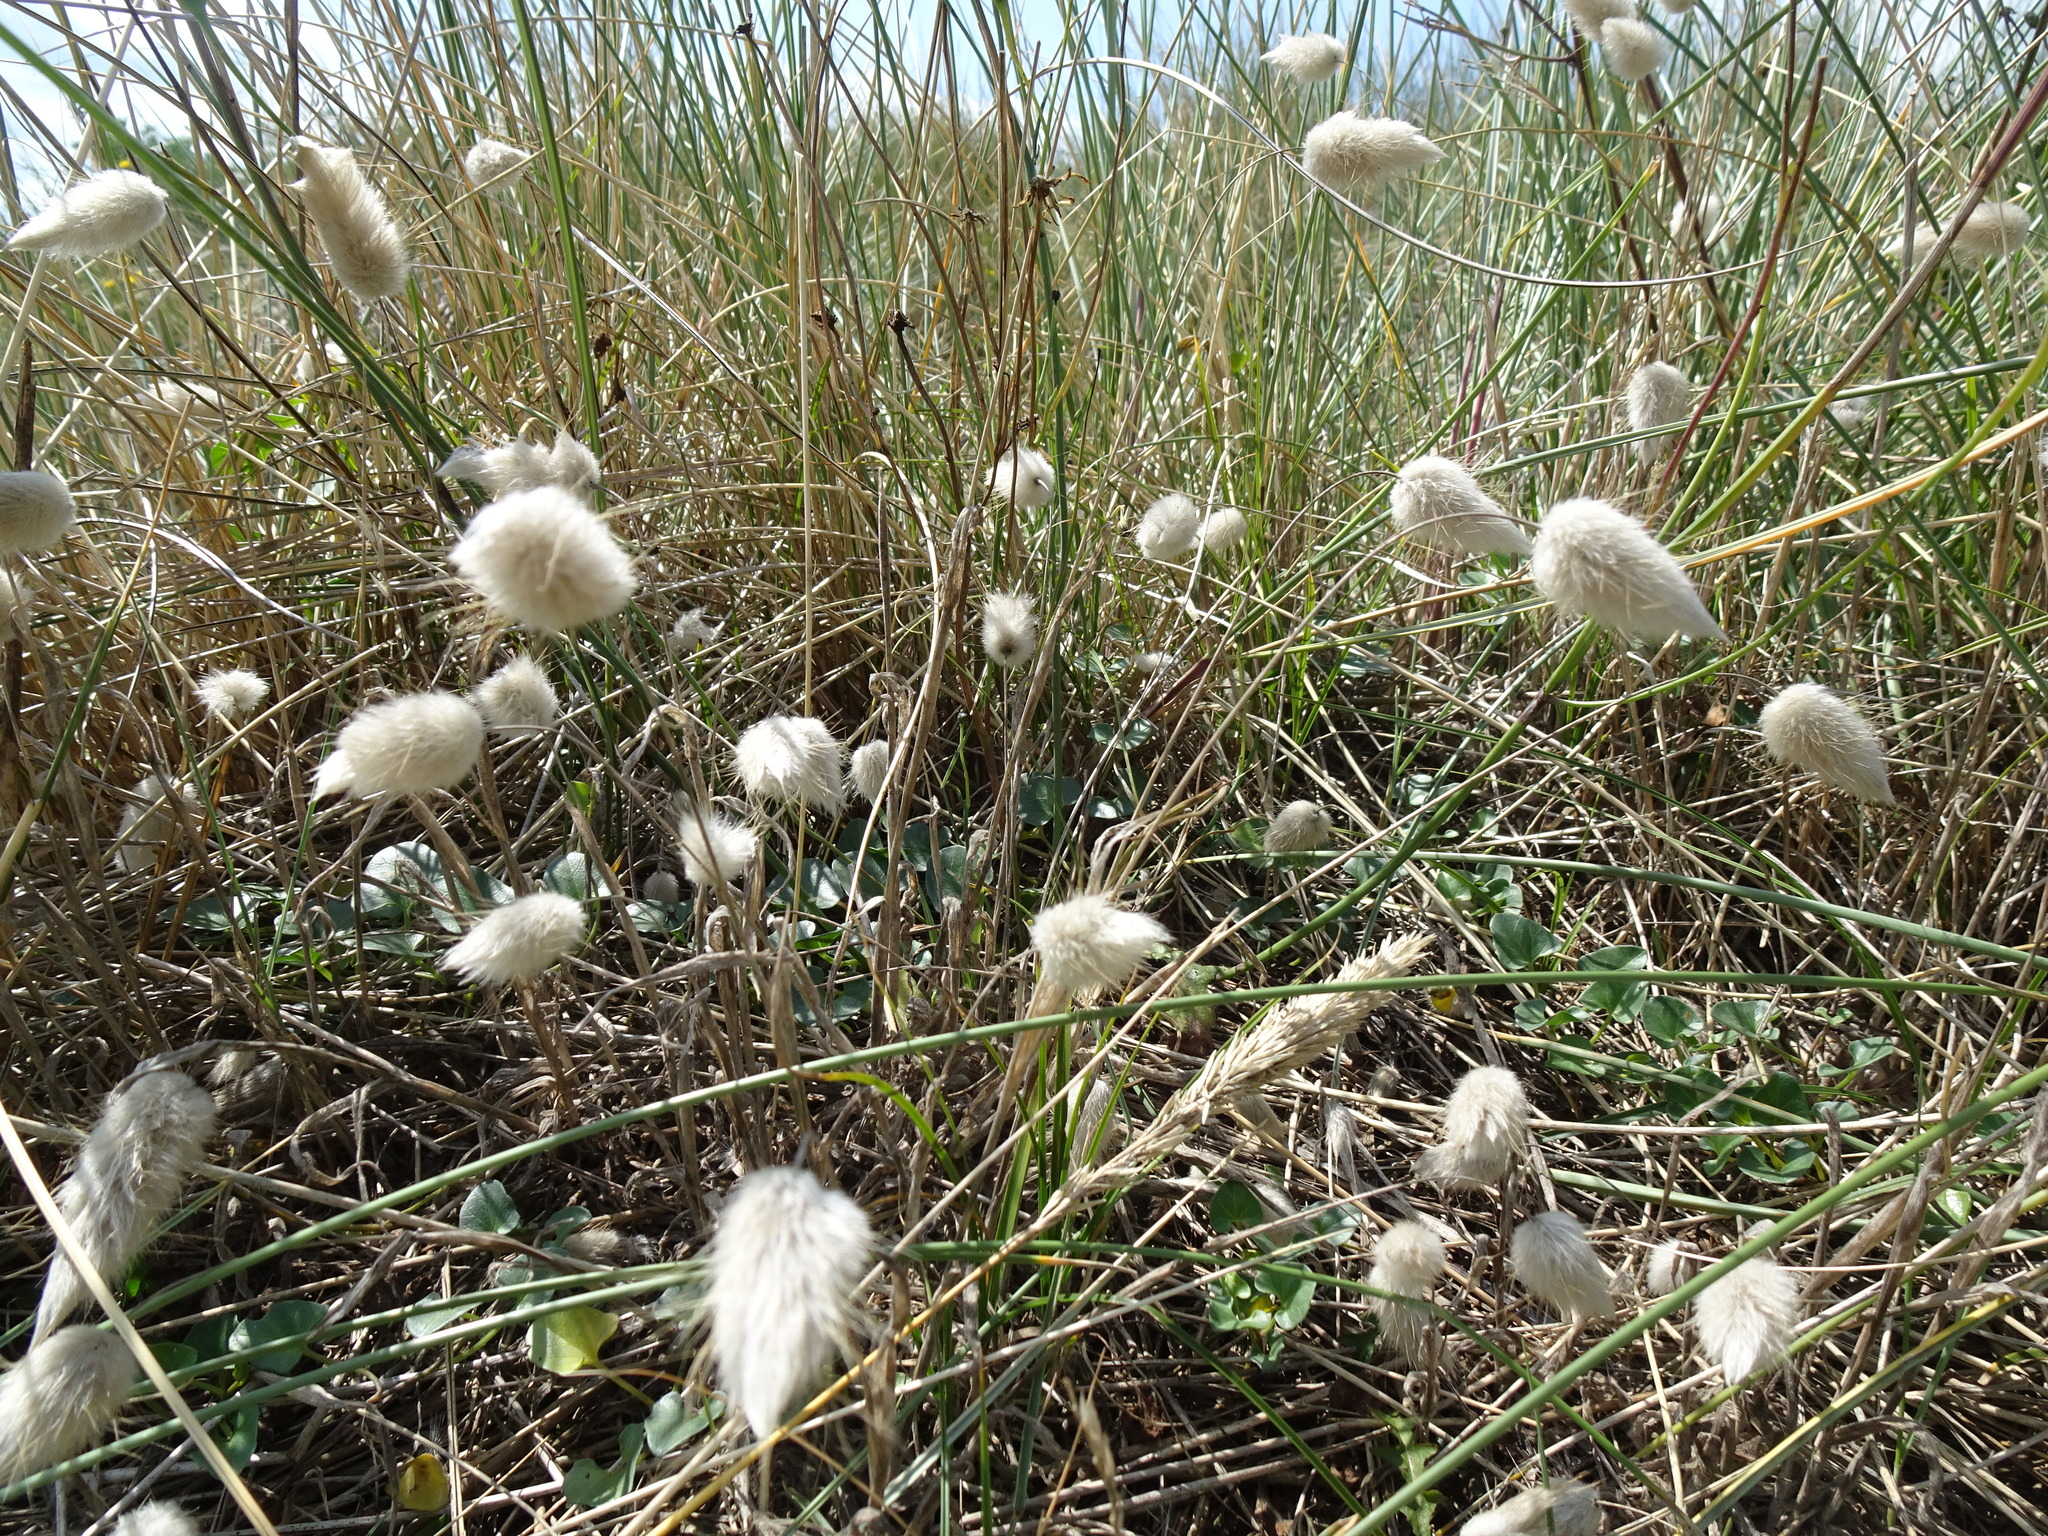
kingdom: Plantae
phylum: Tracheophyta
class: Liliopsida
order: Poales
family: Poaceae
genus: Lagurus
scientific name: Lagurus ovatus
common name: Hare's-tail
